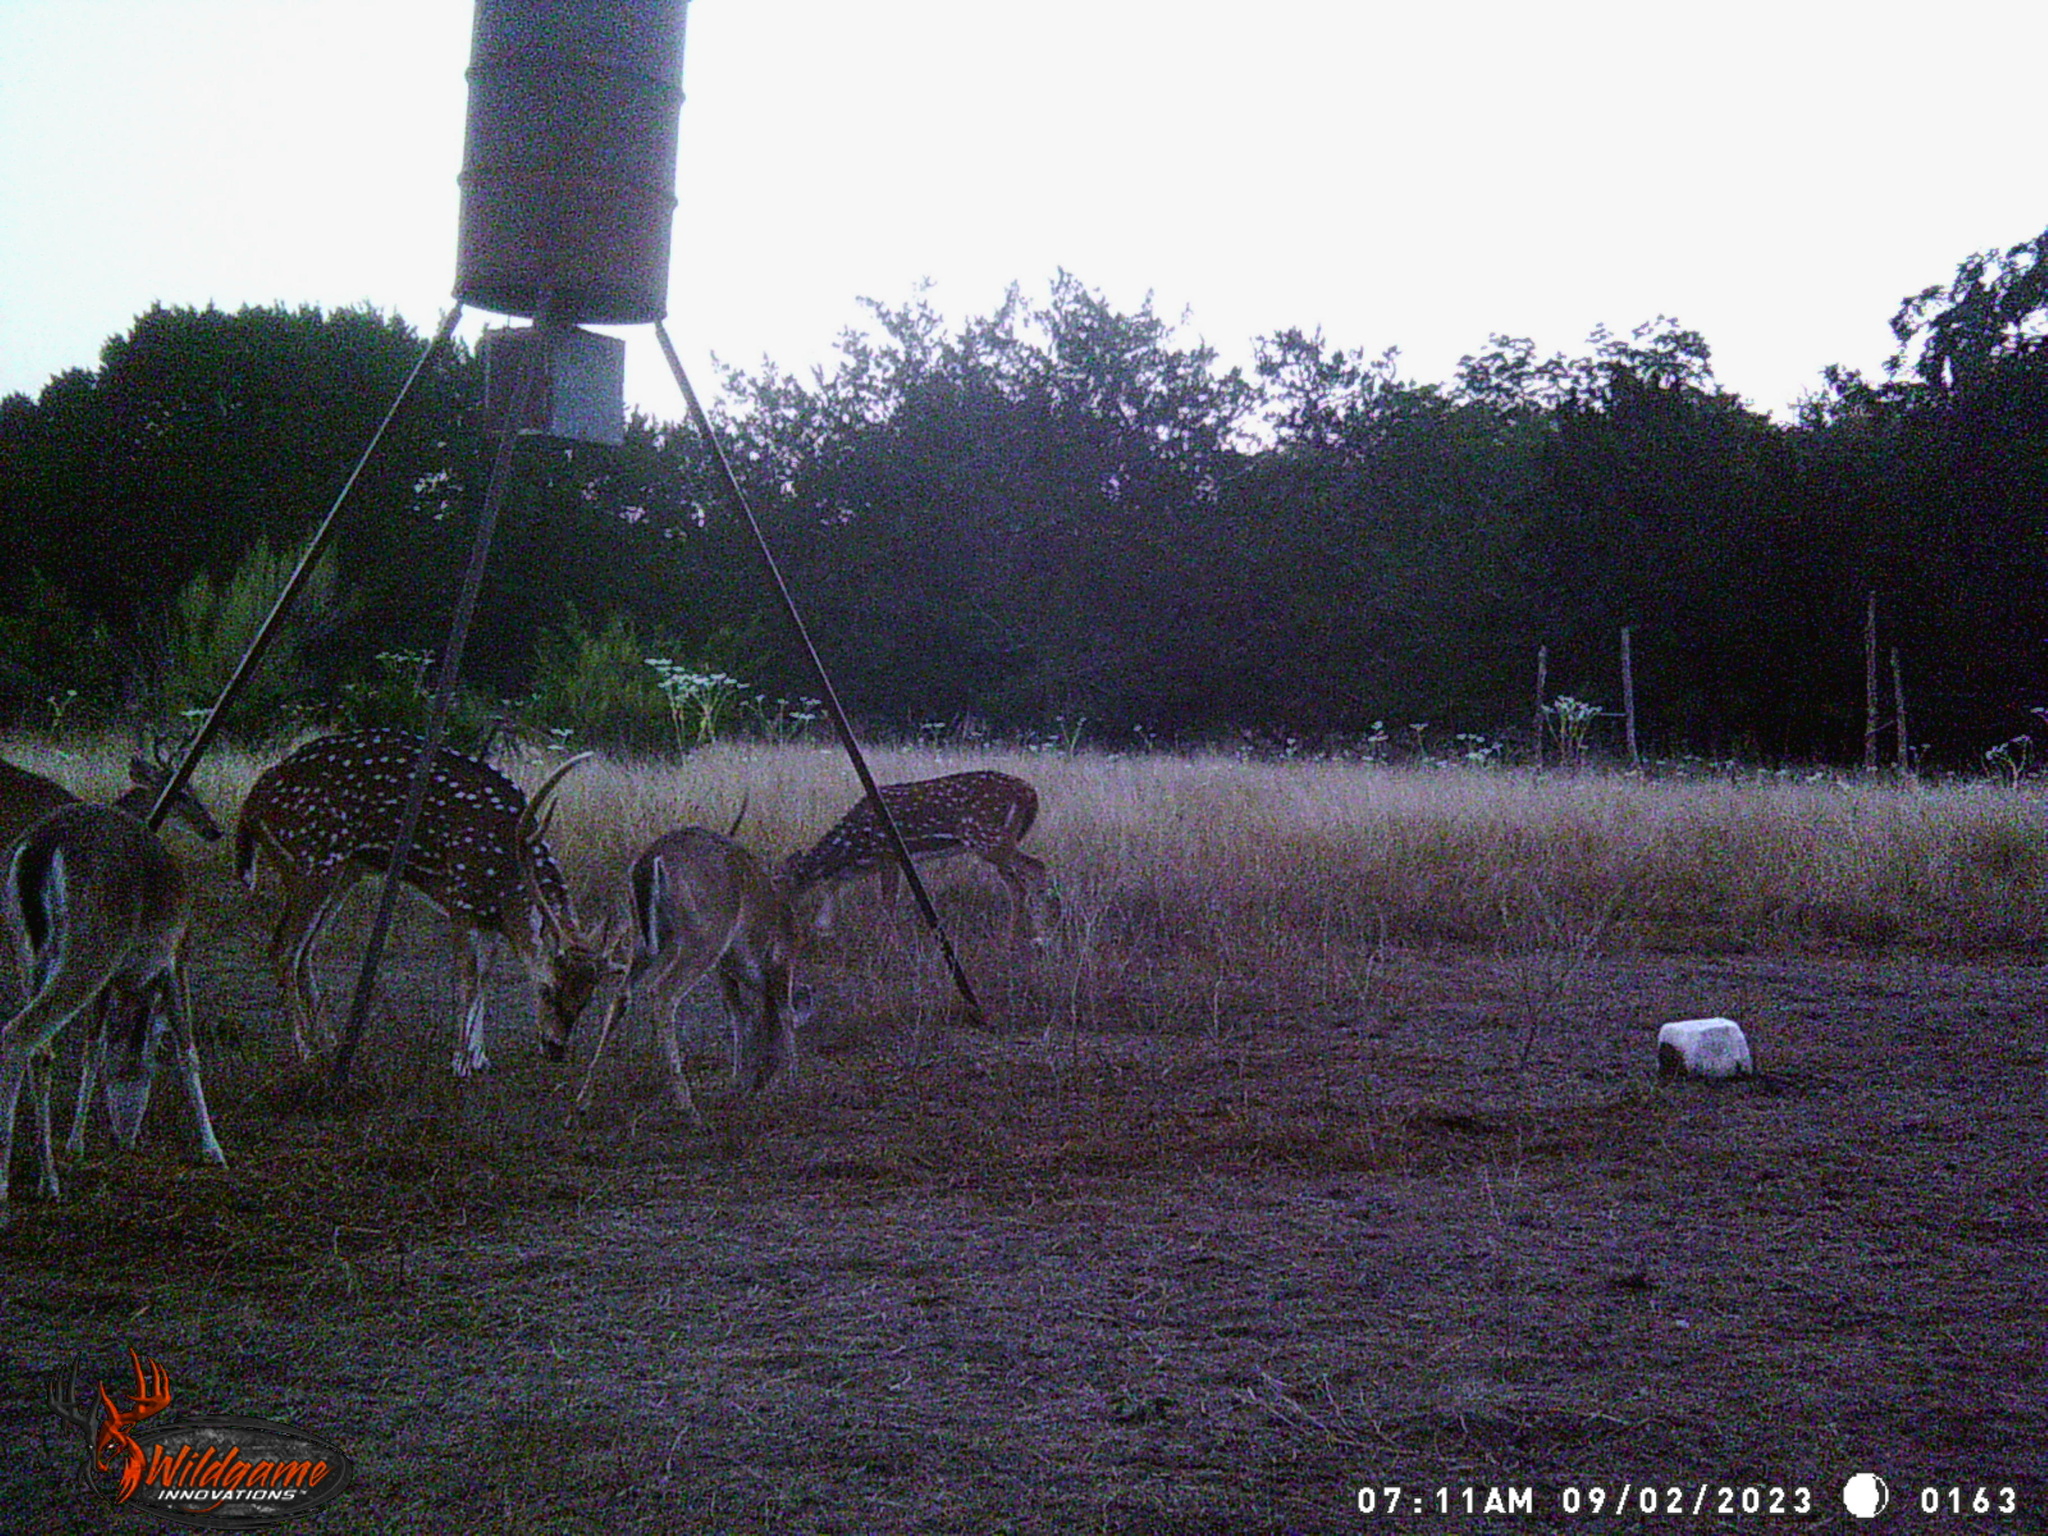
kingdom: Animalia
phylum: Chordata
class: Mammalia
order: Artiodactyla
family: Cervidae
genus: Axis
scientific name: Axis axis
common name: Chital
